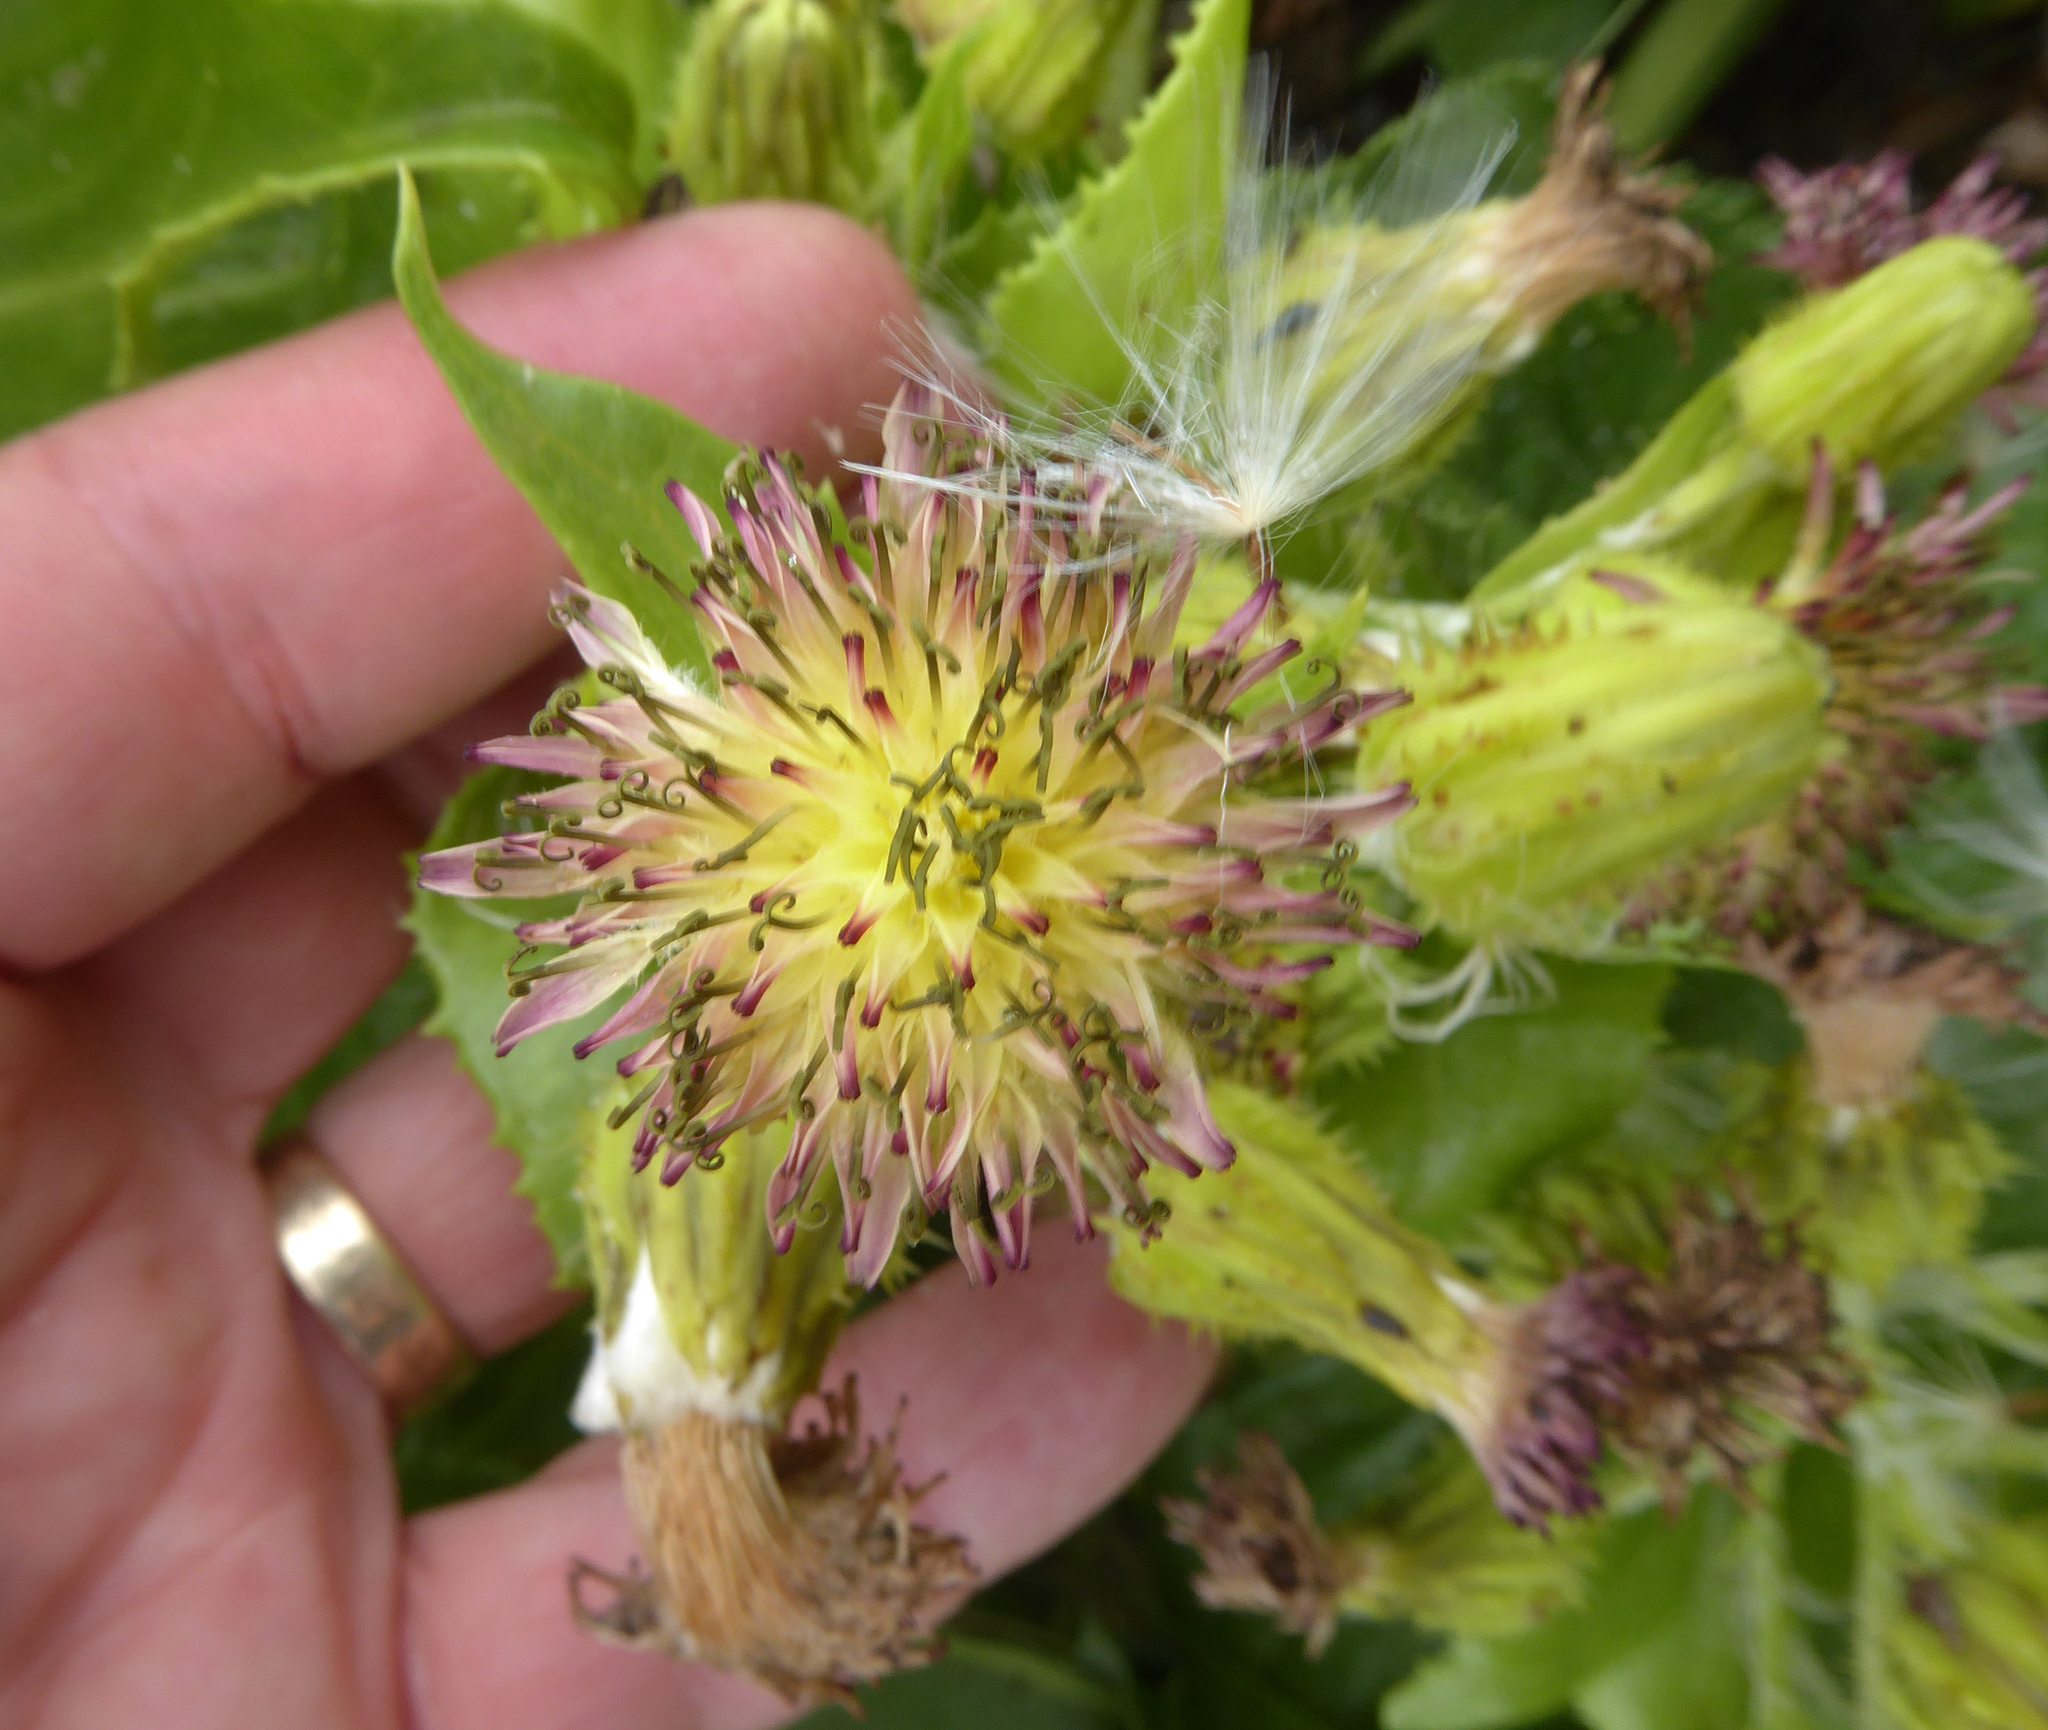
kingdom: Plantae
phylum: Tracheophyta
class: Magnoliopsida
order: Asterales
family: Asteraceae
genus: Sonchus
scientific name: Sonchus grandifolius
